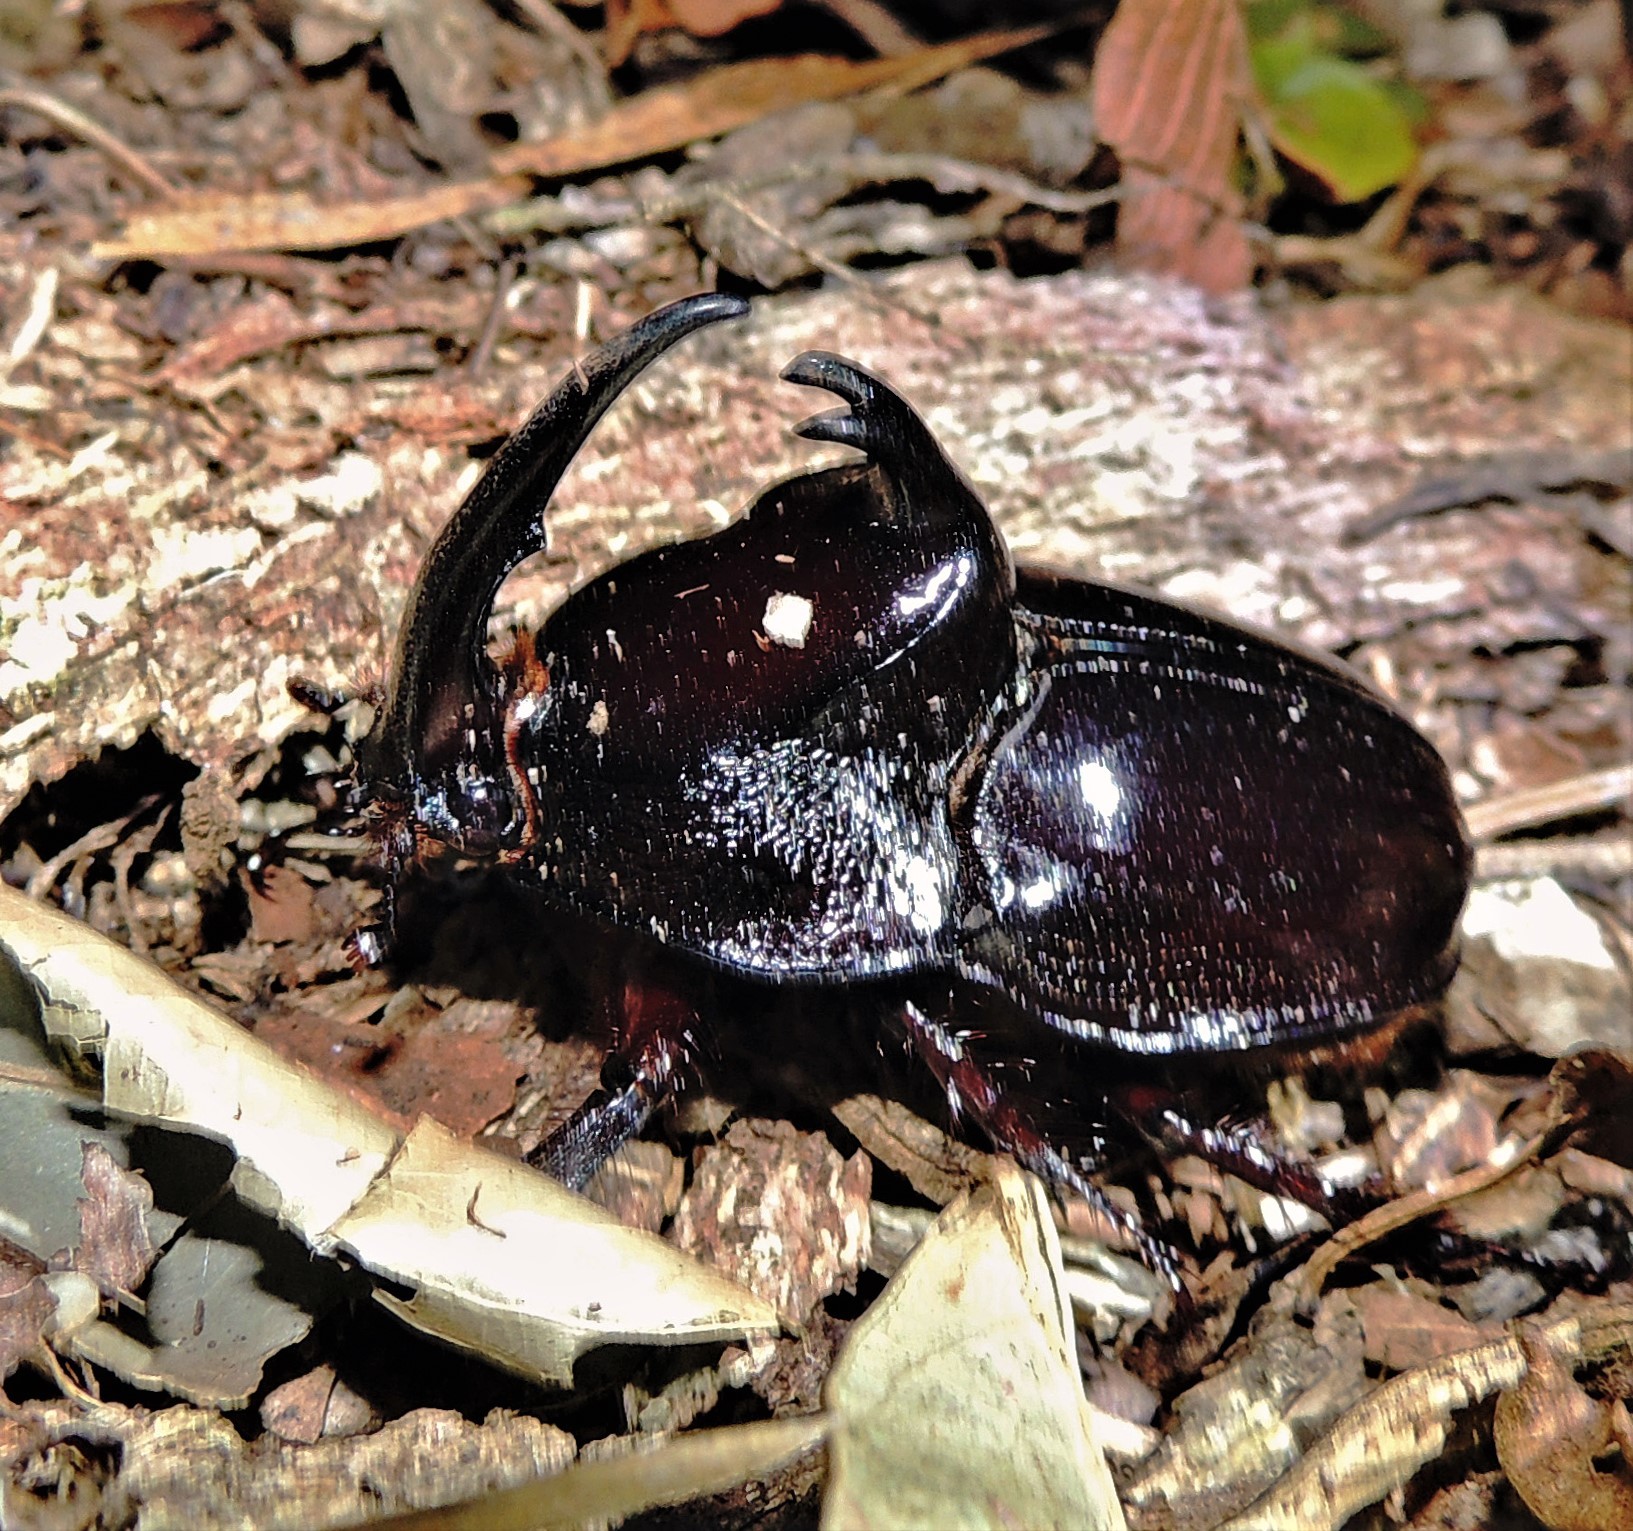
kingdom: Animalia
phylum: Arthropoda
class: Insecta
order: Coleoptera
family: Scarabaeidae
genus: Enema
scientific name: Enema pan
